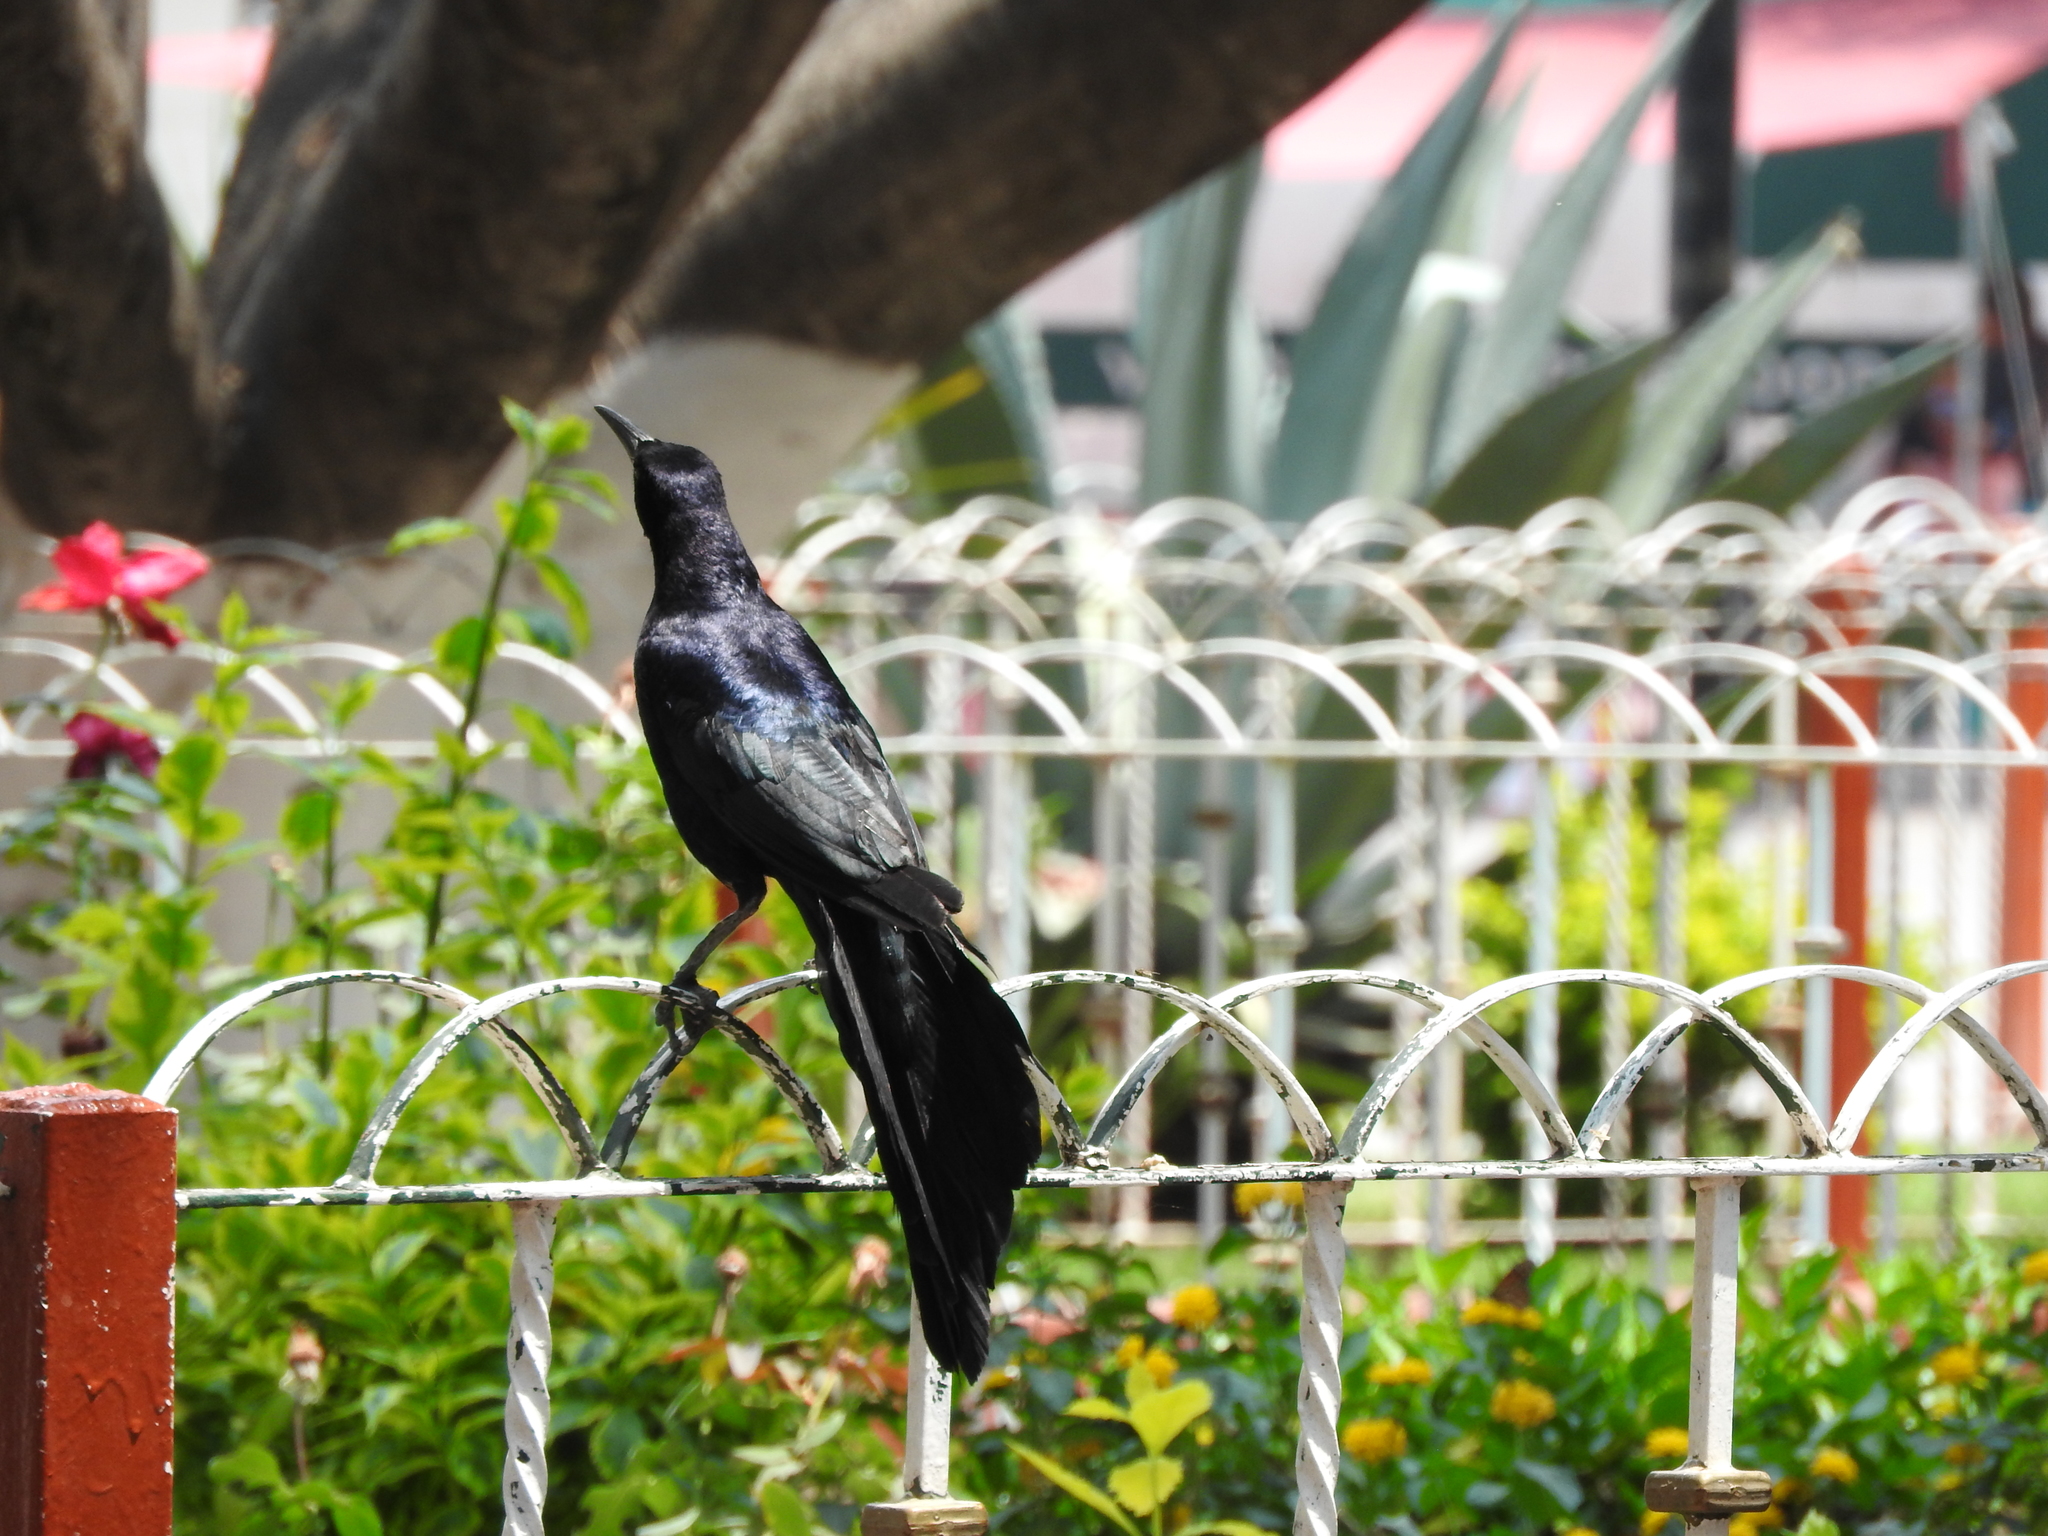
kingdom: Animalia
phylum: Chordata
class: Aves
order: Passeriformes
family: Icteridae
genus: Quiscalus
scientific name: Quiscalus mexicanus
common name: Great-tailed grackle
